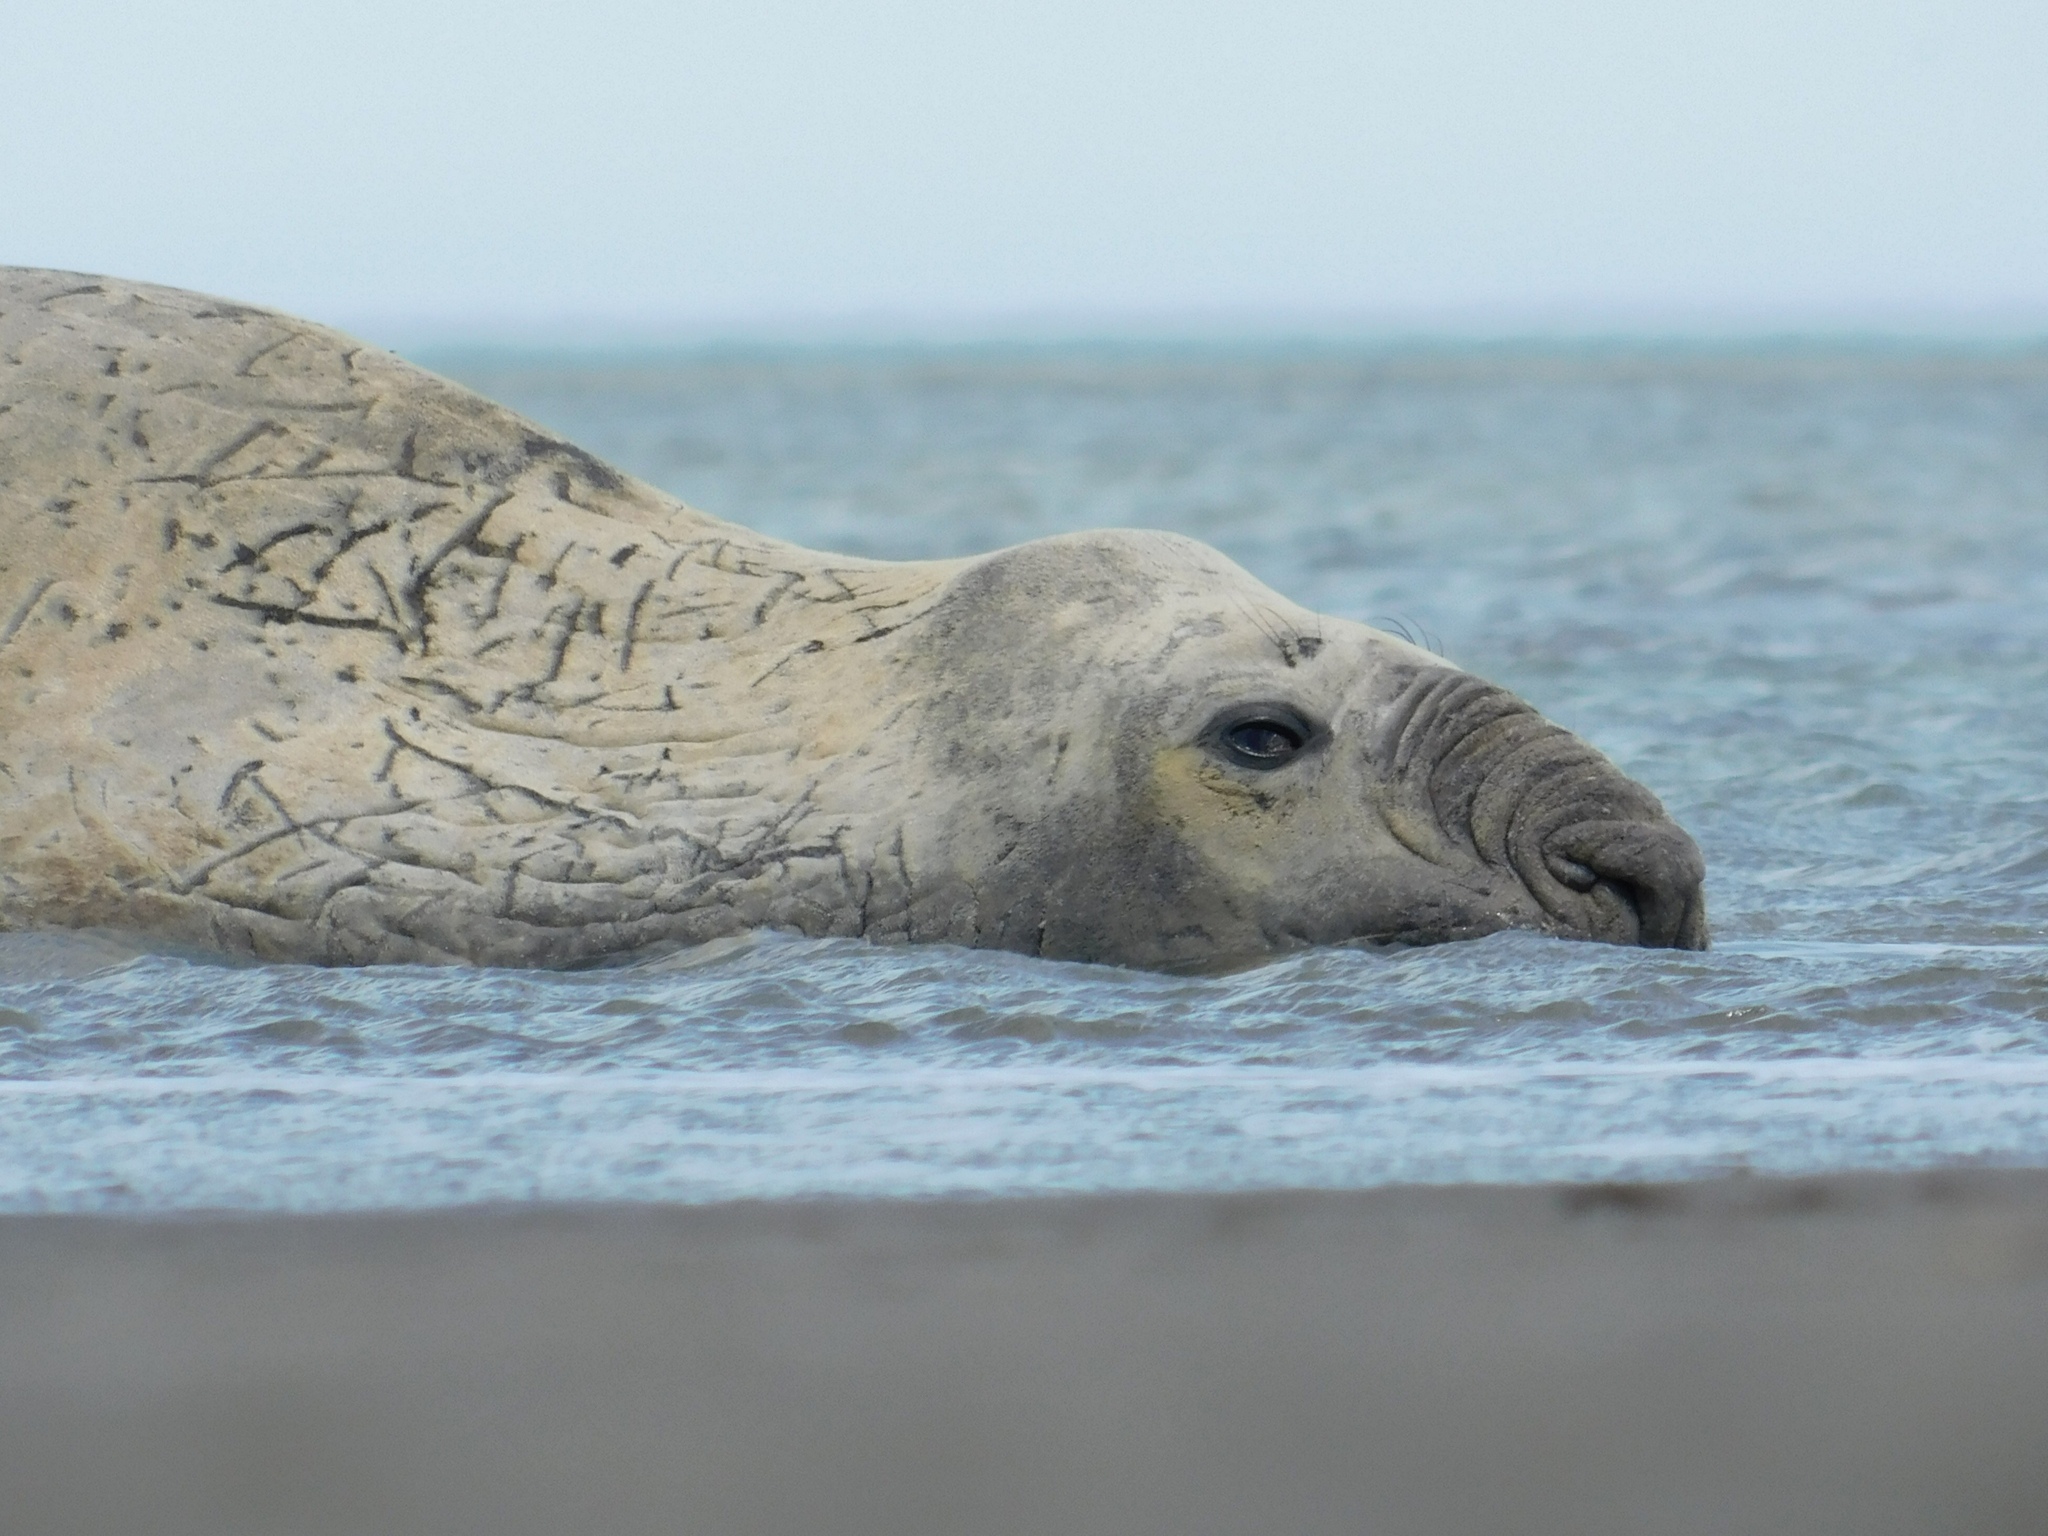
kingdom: Animalia
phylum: Chordata
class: Mammalia
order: Carnivora
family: Phocidae
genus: Mirounga
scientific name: Mirounga leonina
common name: Southern elephant seal
